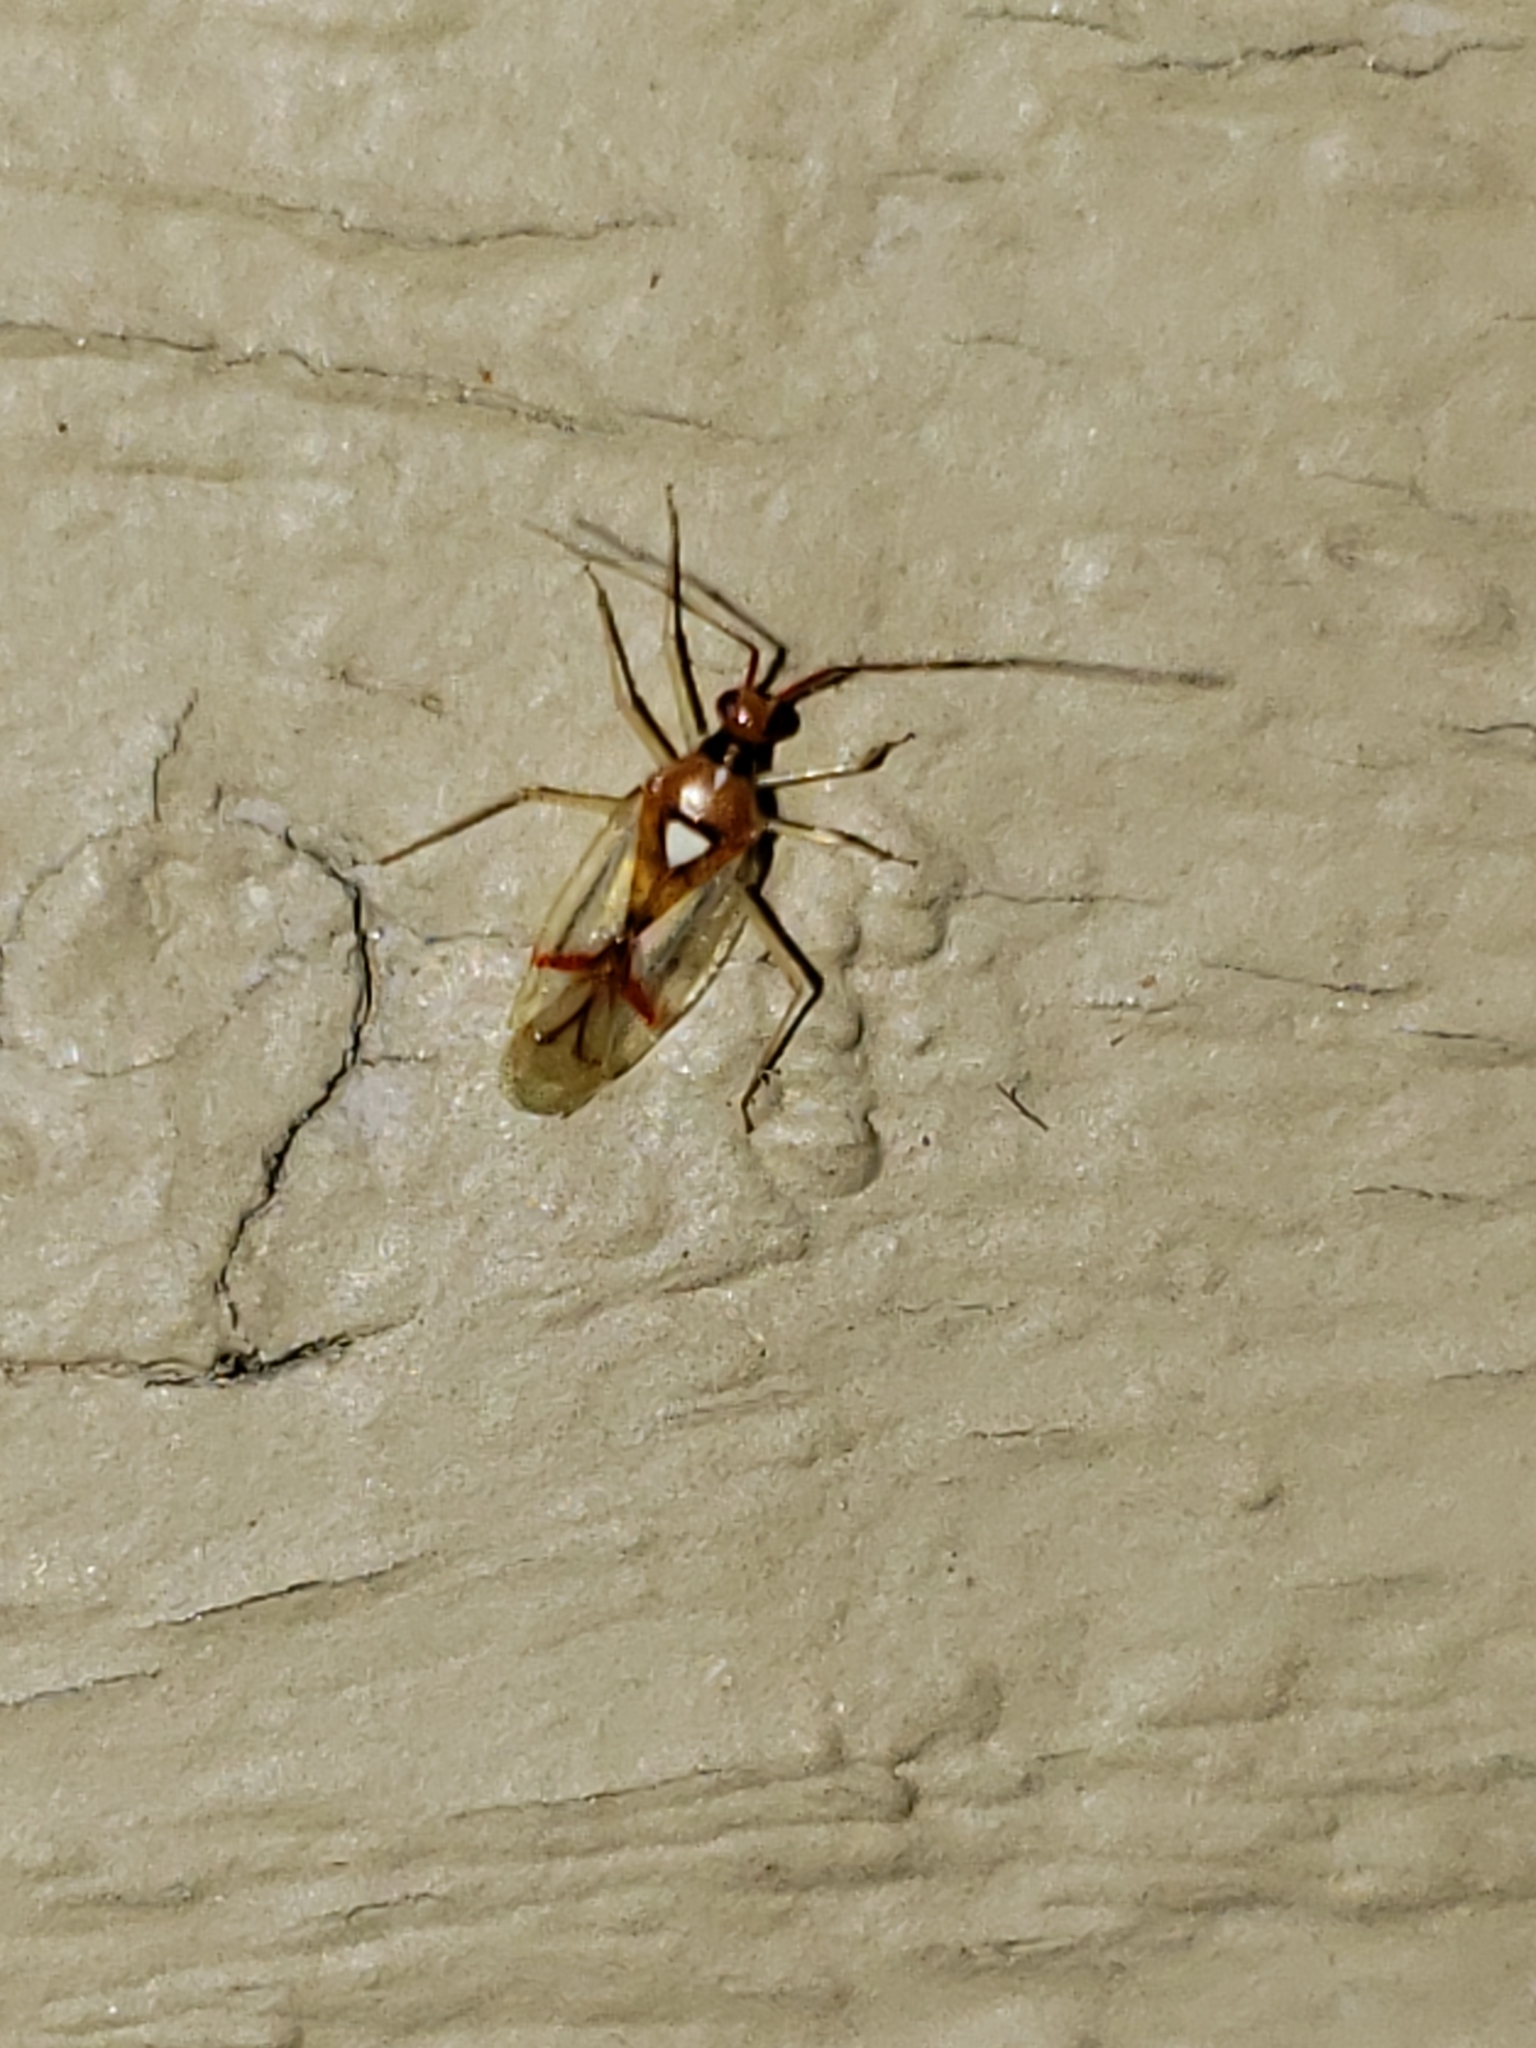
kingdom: Animalia
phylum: Arthropoda
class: Insecta
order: Hemiptera
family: Miridae
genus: Hyaliodes
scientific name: Hyaliodes harti
